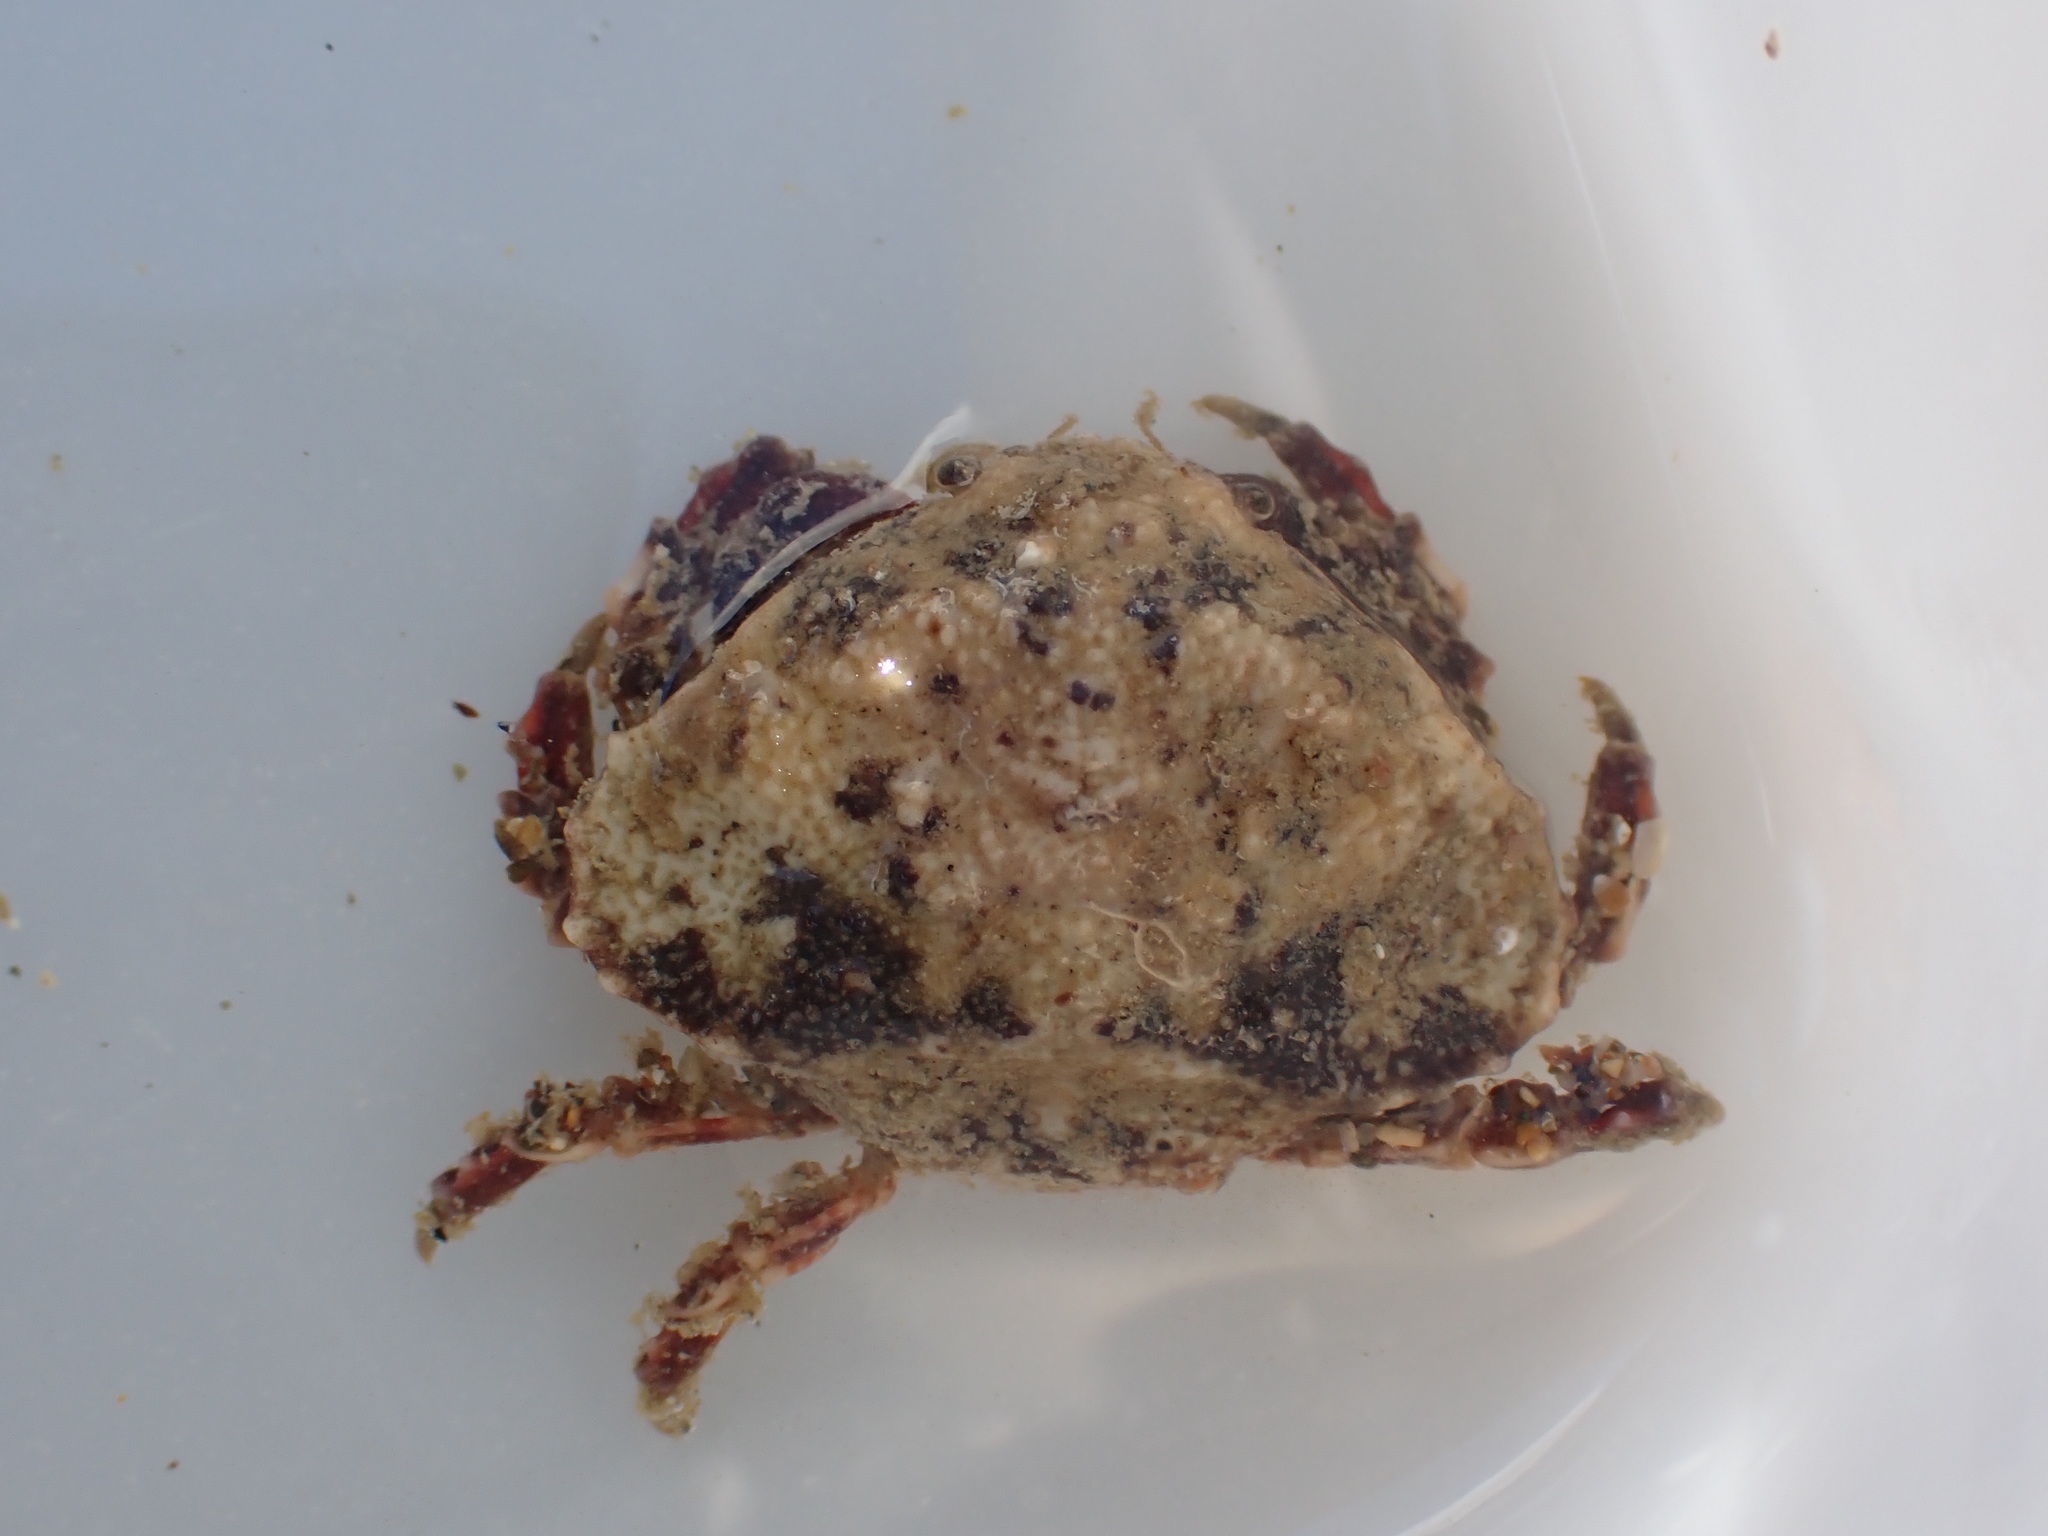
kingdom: Animalia
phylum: Arthropoda
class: Malacostraca
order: Decapoda
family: Majidae
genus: Eurynolambrus
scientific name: Eurynolambrus australis
